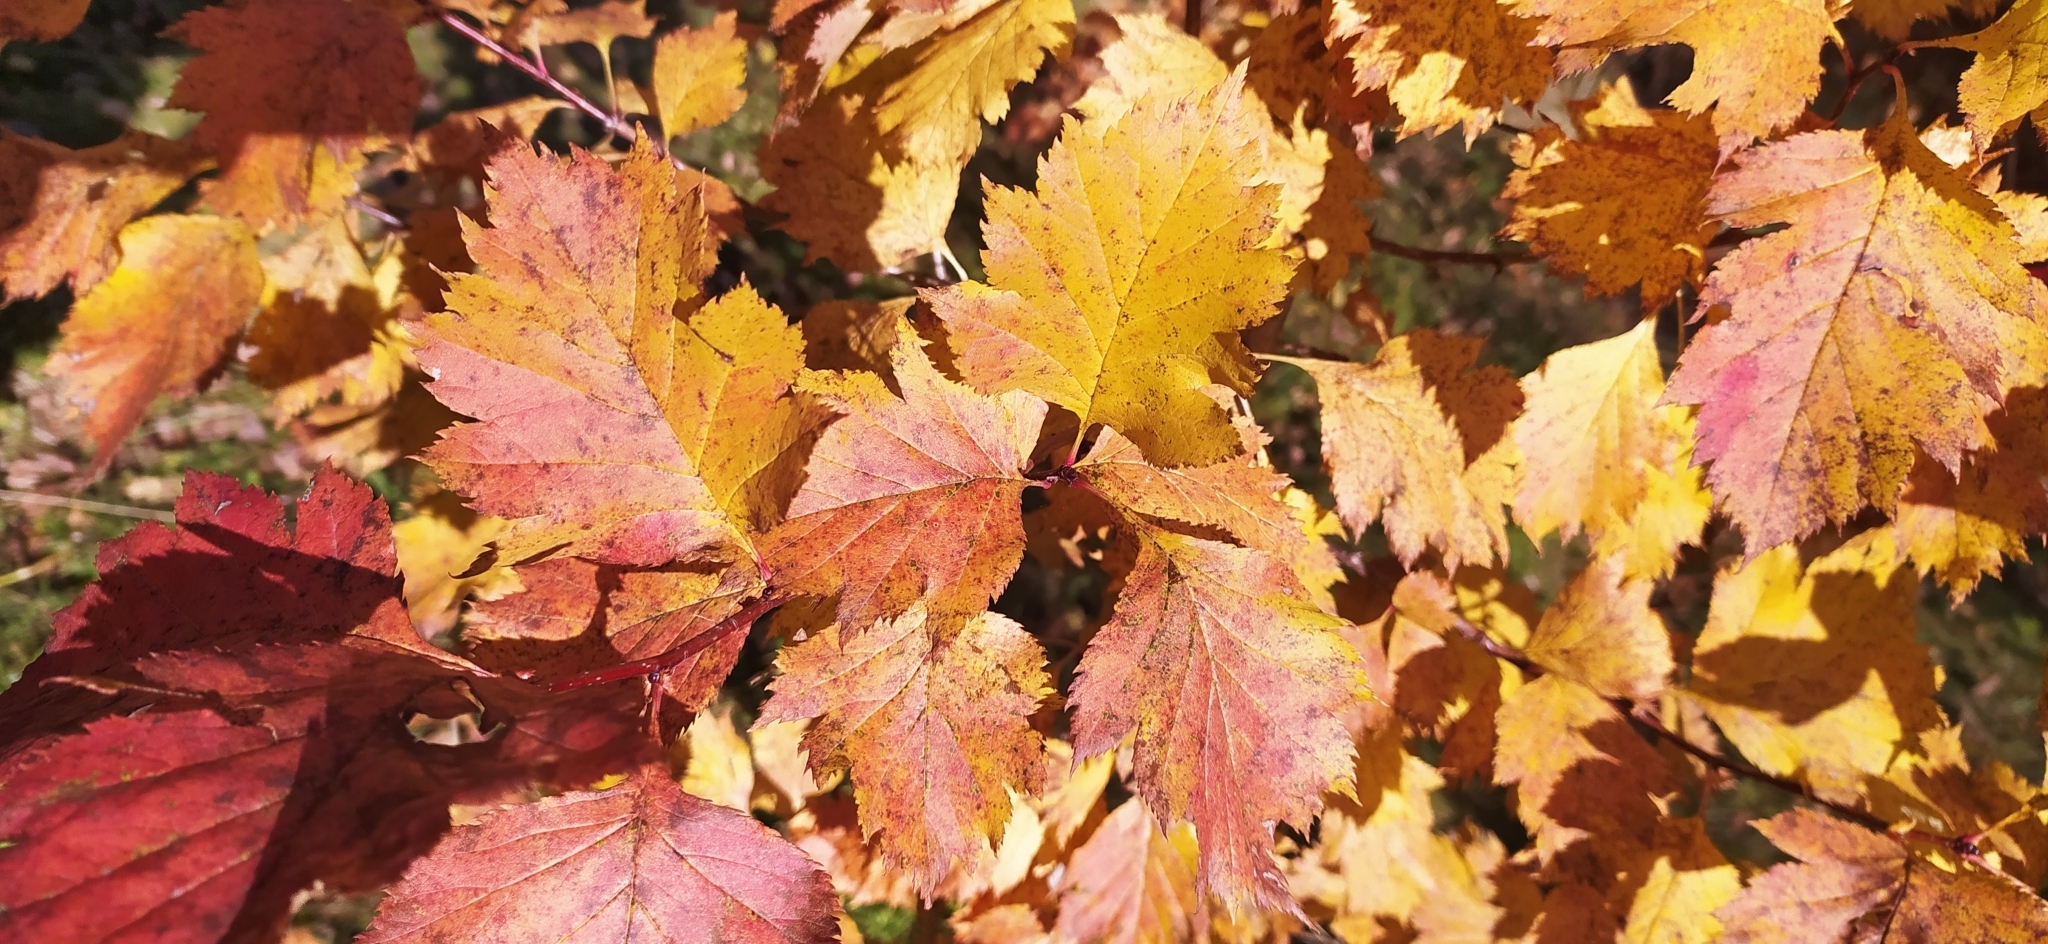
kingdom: Plantae
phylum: Tracheophyta
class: Magnoliopsida
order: Rosales
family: Rosaceae
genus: Crataegus
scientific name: Crataegus sanguinea
